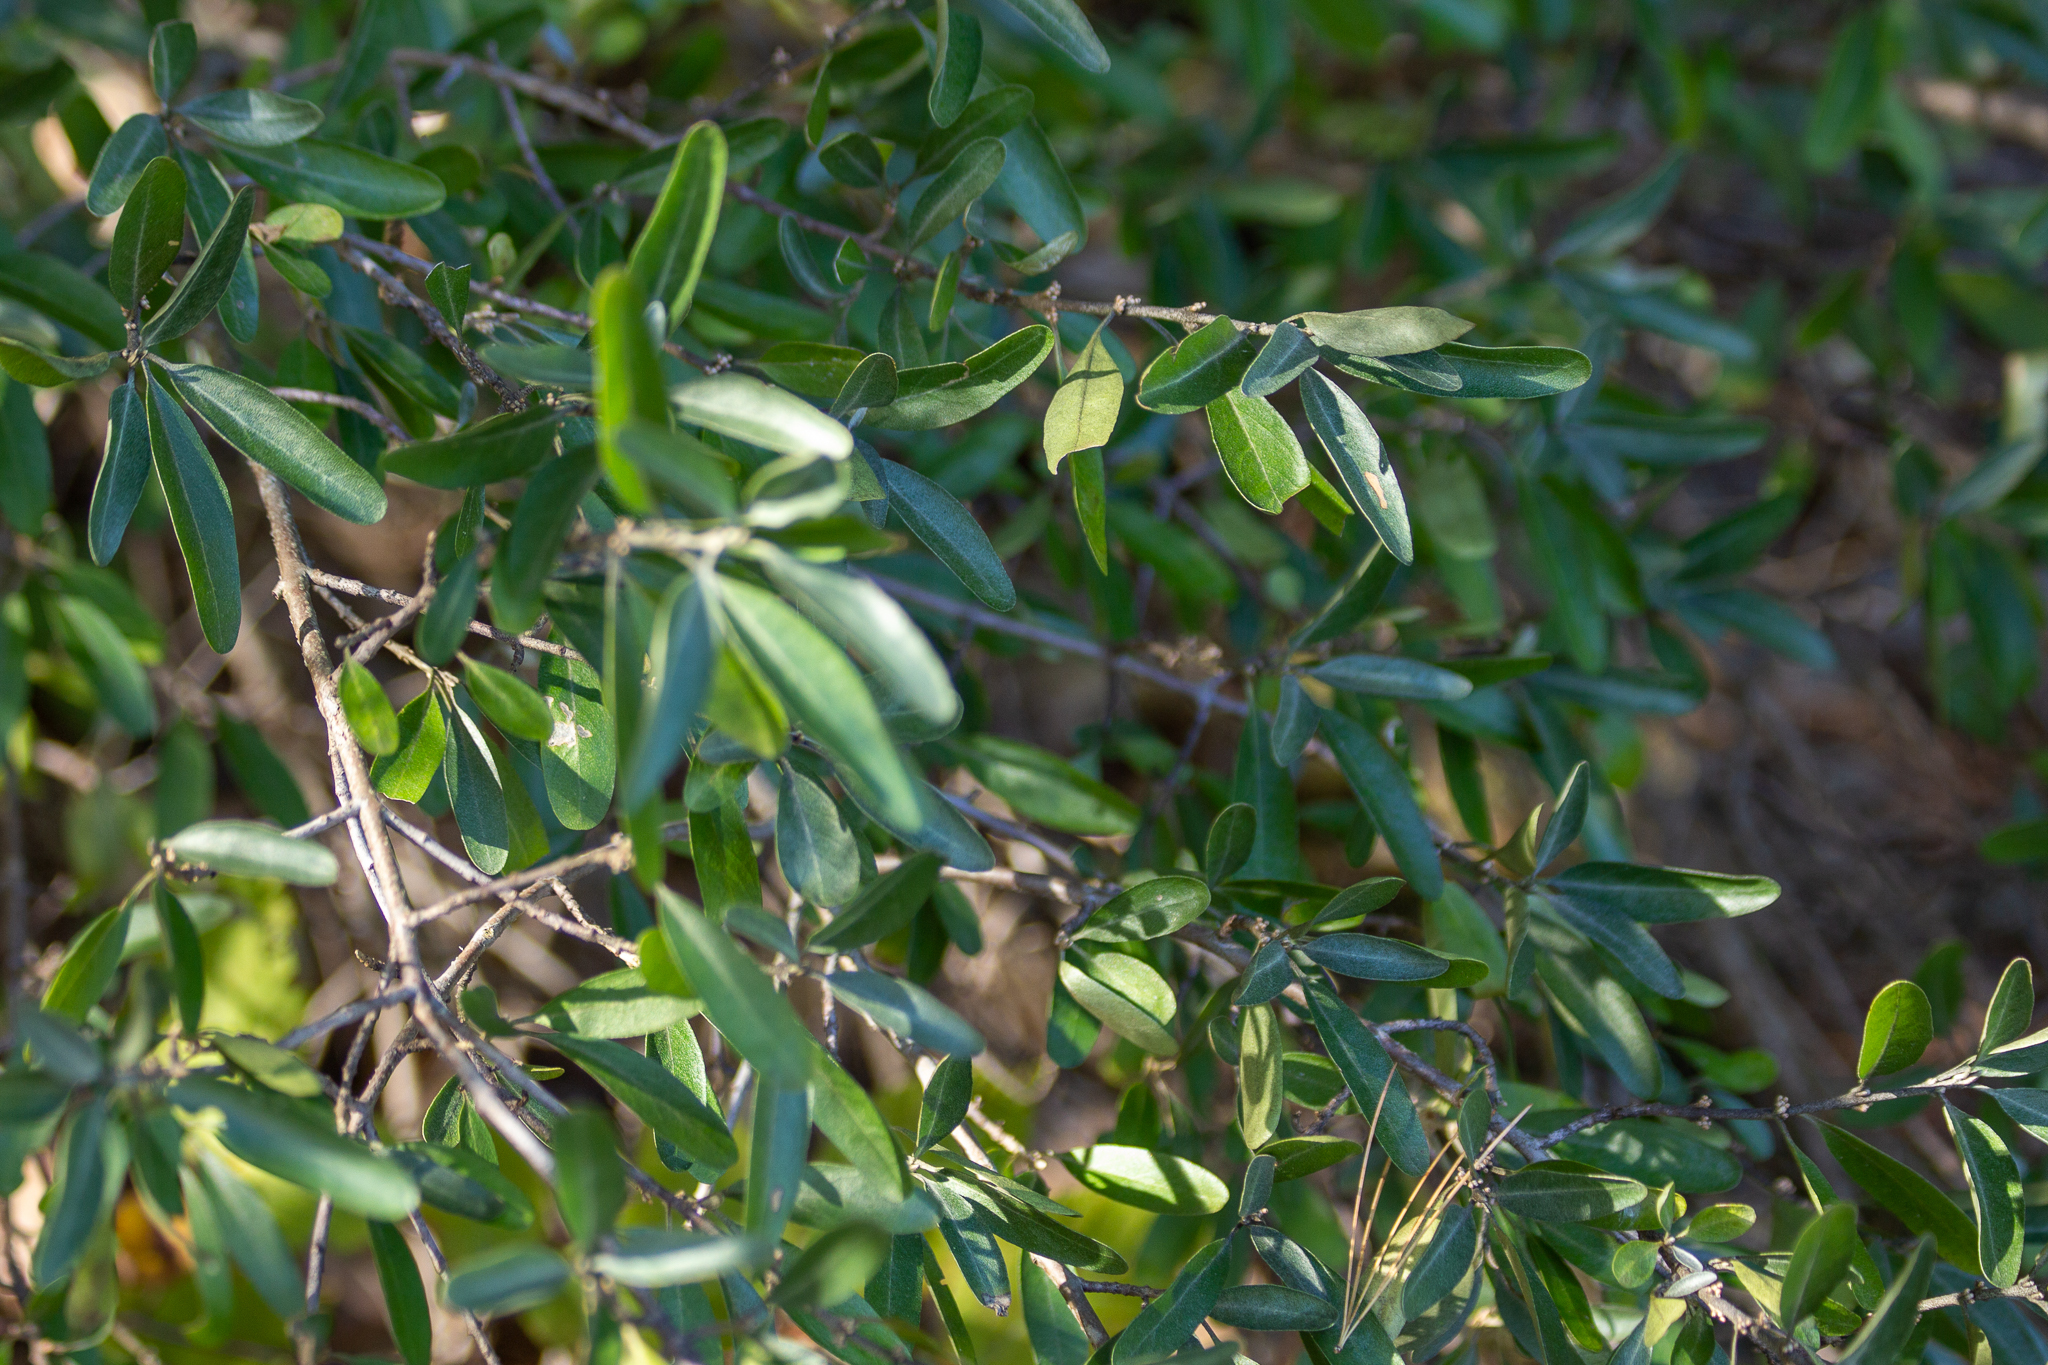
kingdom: Plantae
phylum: Tracheophyta
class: Magnoliopsida
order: Rosales
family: Elaeagnaceae
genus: Shepherdia
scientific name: Shepherdia argentea
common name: Silver buffaloberry
